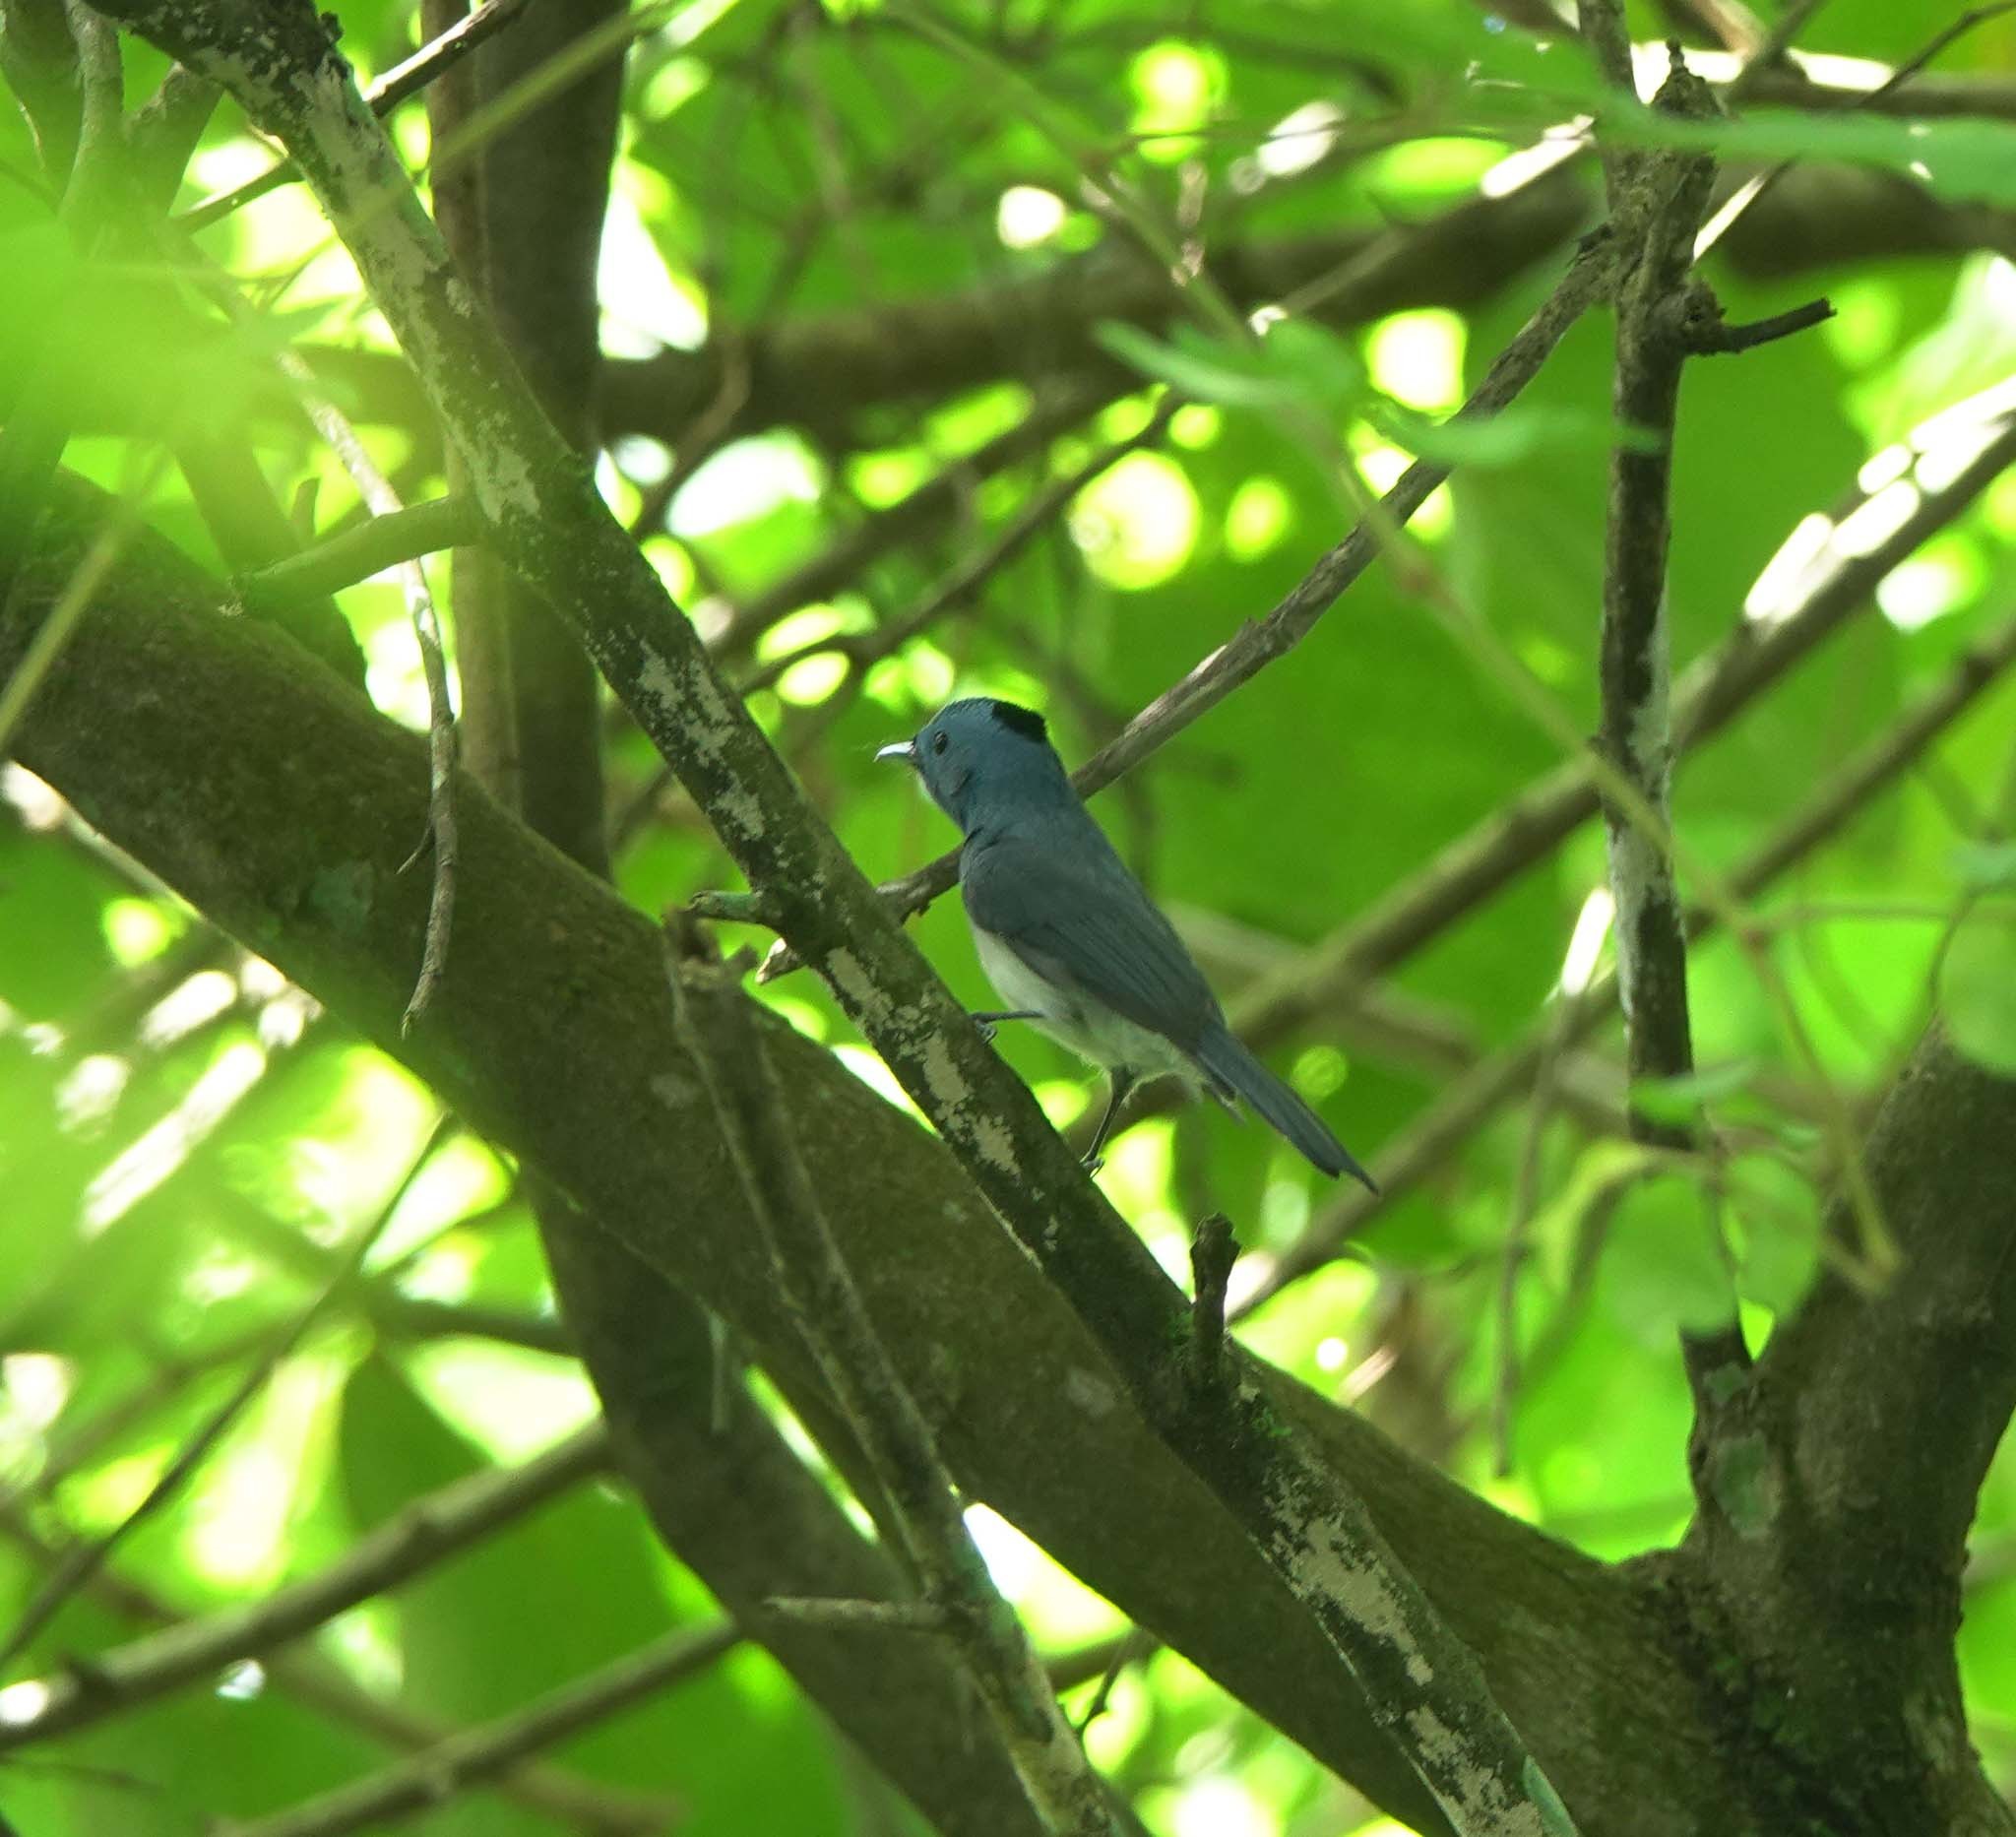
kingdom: Animalia
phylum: Chordata
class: Aves
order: Passeriformes
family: Monarchidae
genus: Hypothymis
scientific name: Hypothymis azurea
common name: Black-naped monarch
